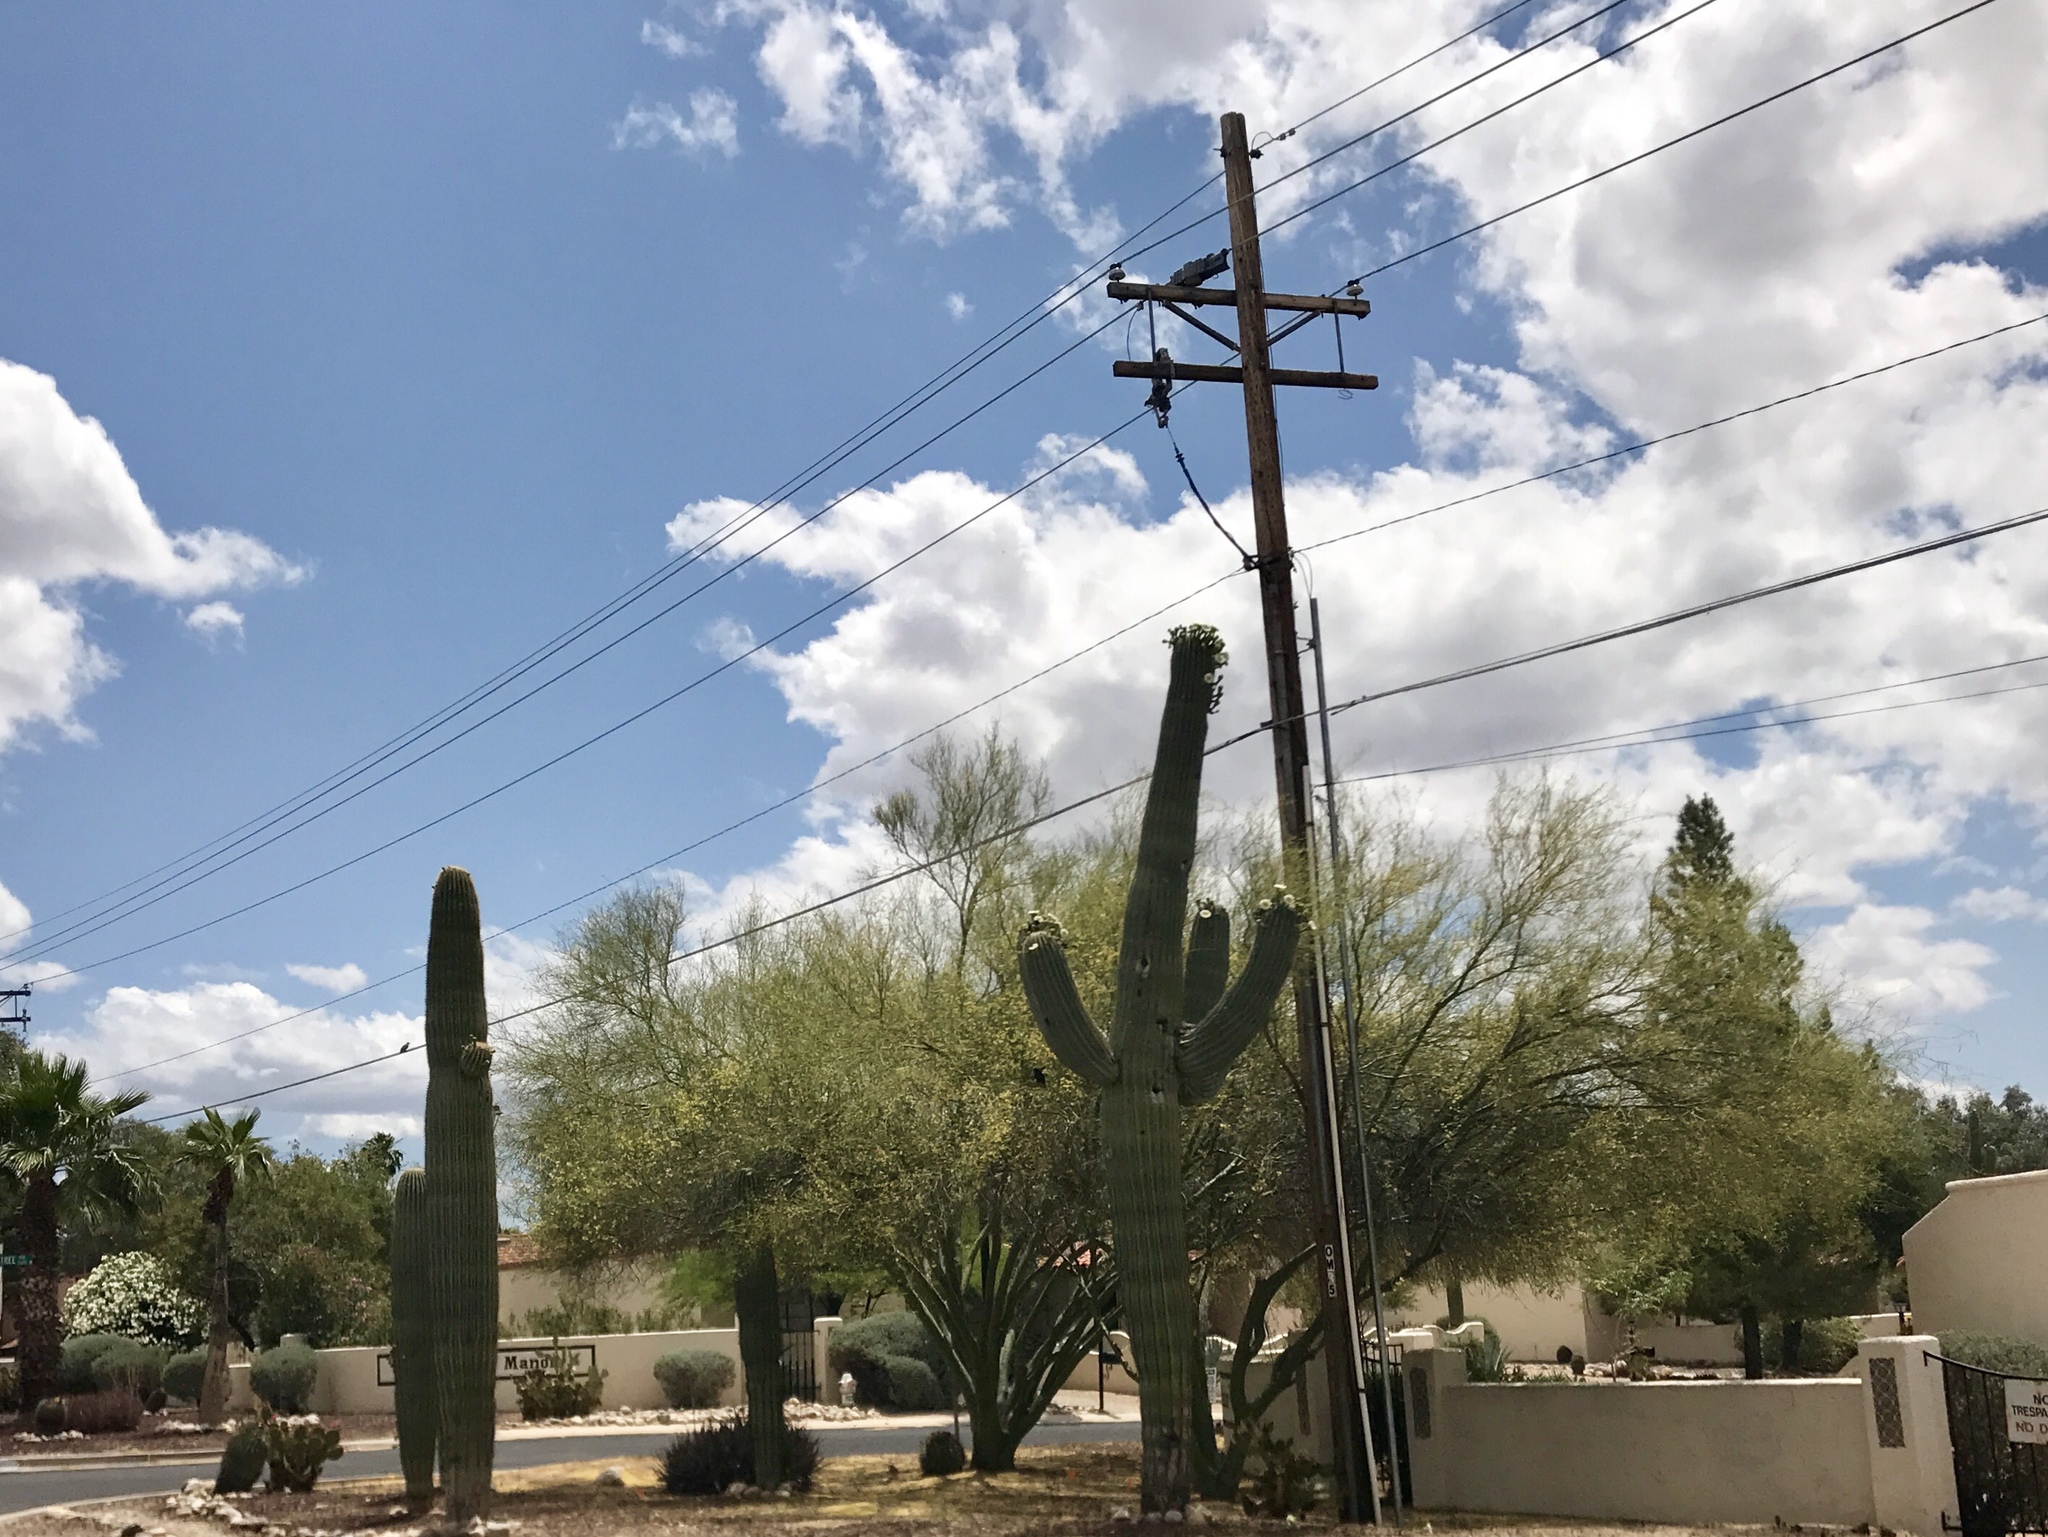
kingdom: Plantae
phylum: Tracheophyta
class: Magnoliopsida
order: Caryophyllales
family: Cactaceae
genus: Carnegiea
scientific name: Carnegiea gigantea
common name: Saguaro
